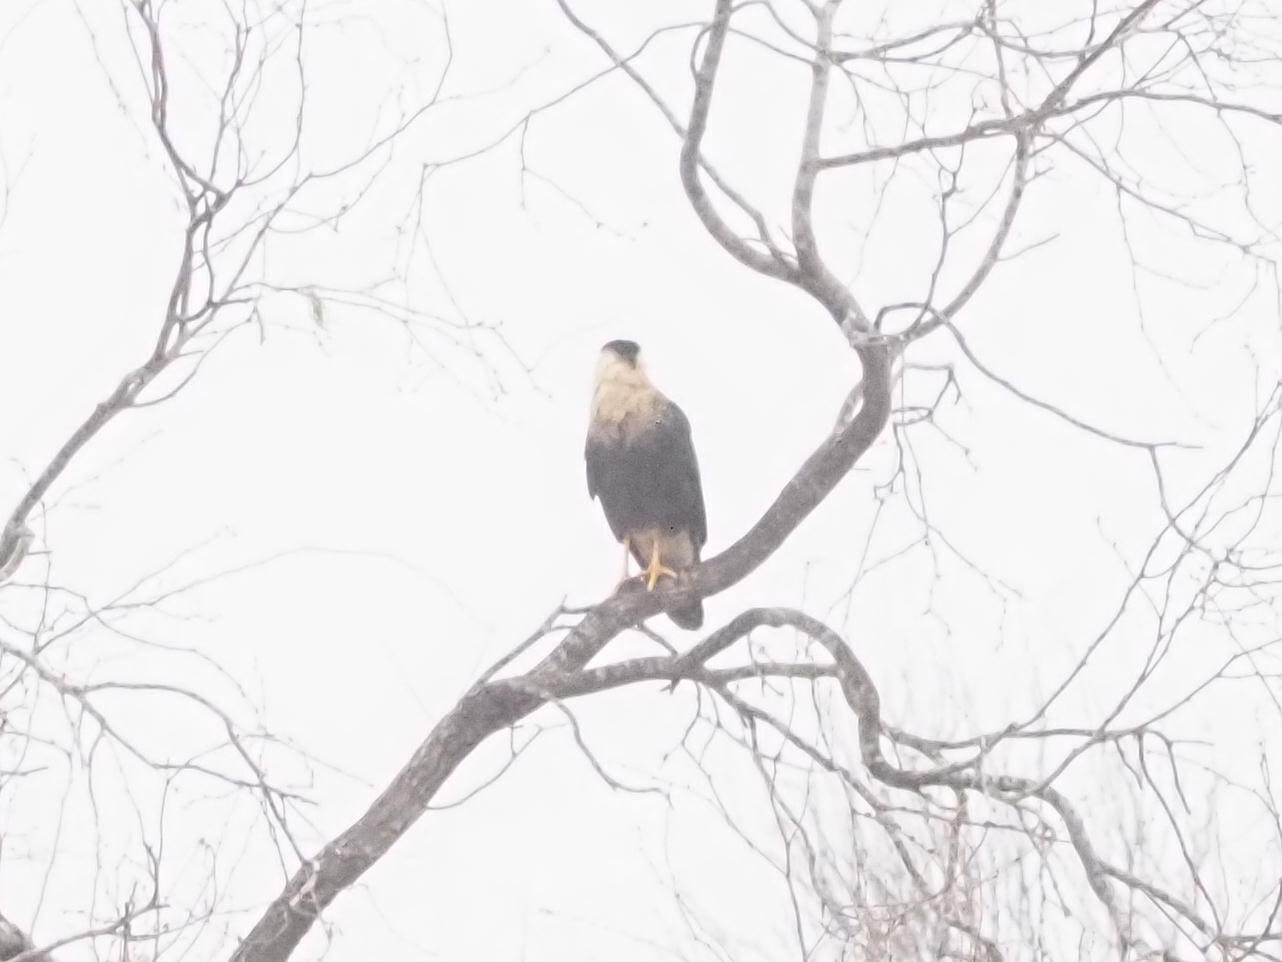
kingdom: Animalia
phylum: Chordata
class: Aves
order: Falconiformes
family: Falconidae
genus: Caracara
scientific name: Caracara plancus
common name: Southern caracara
